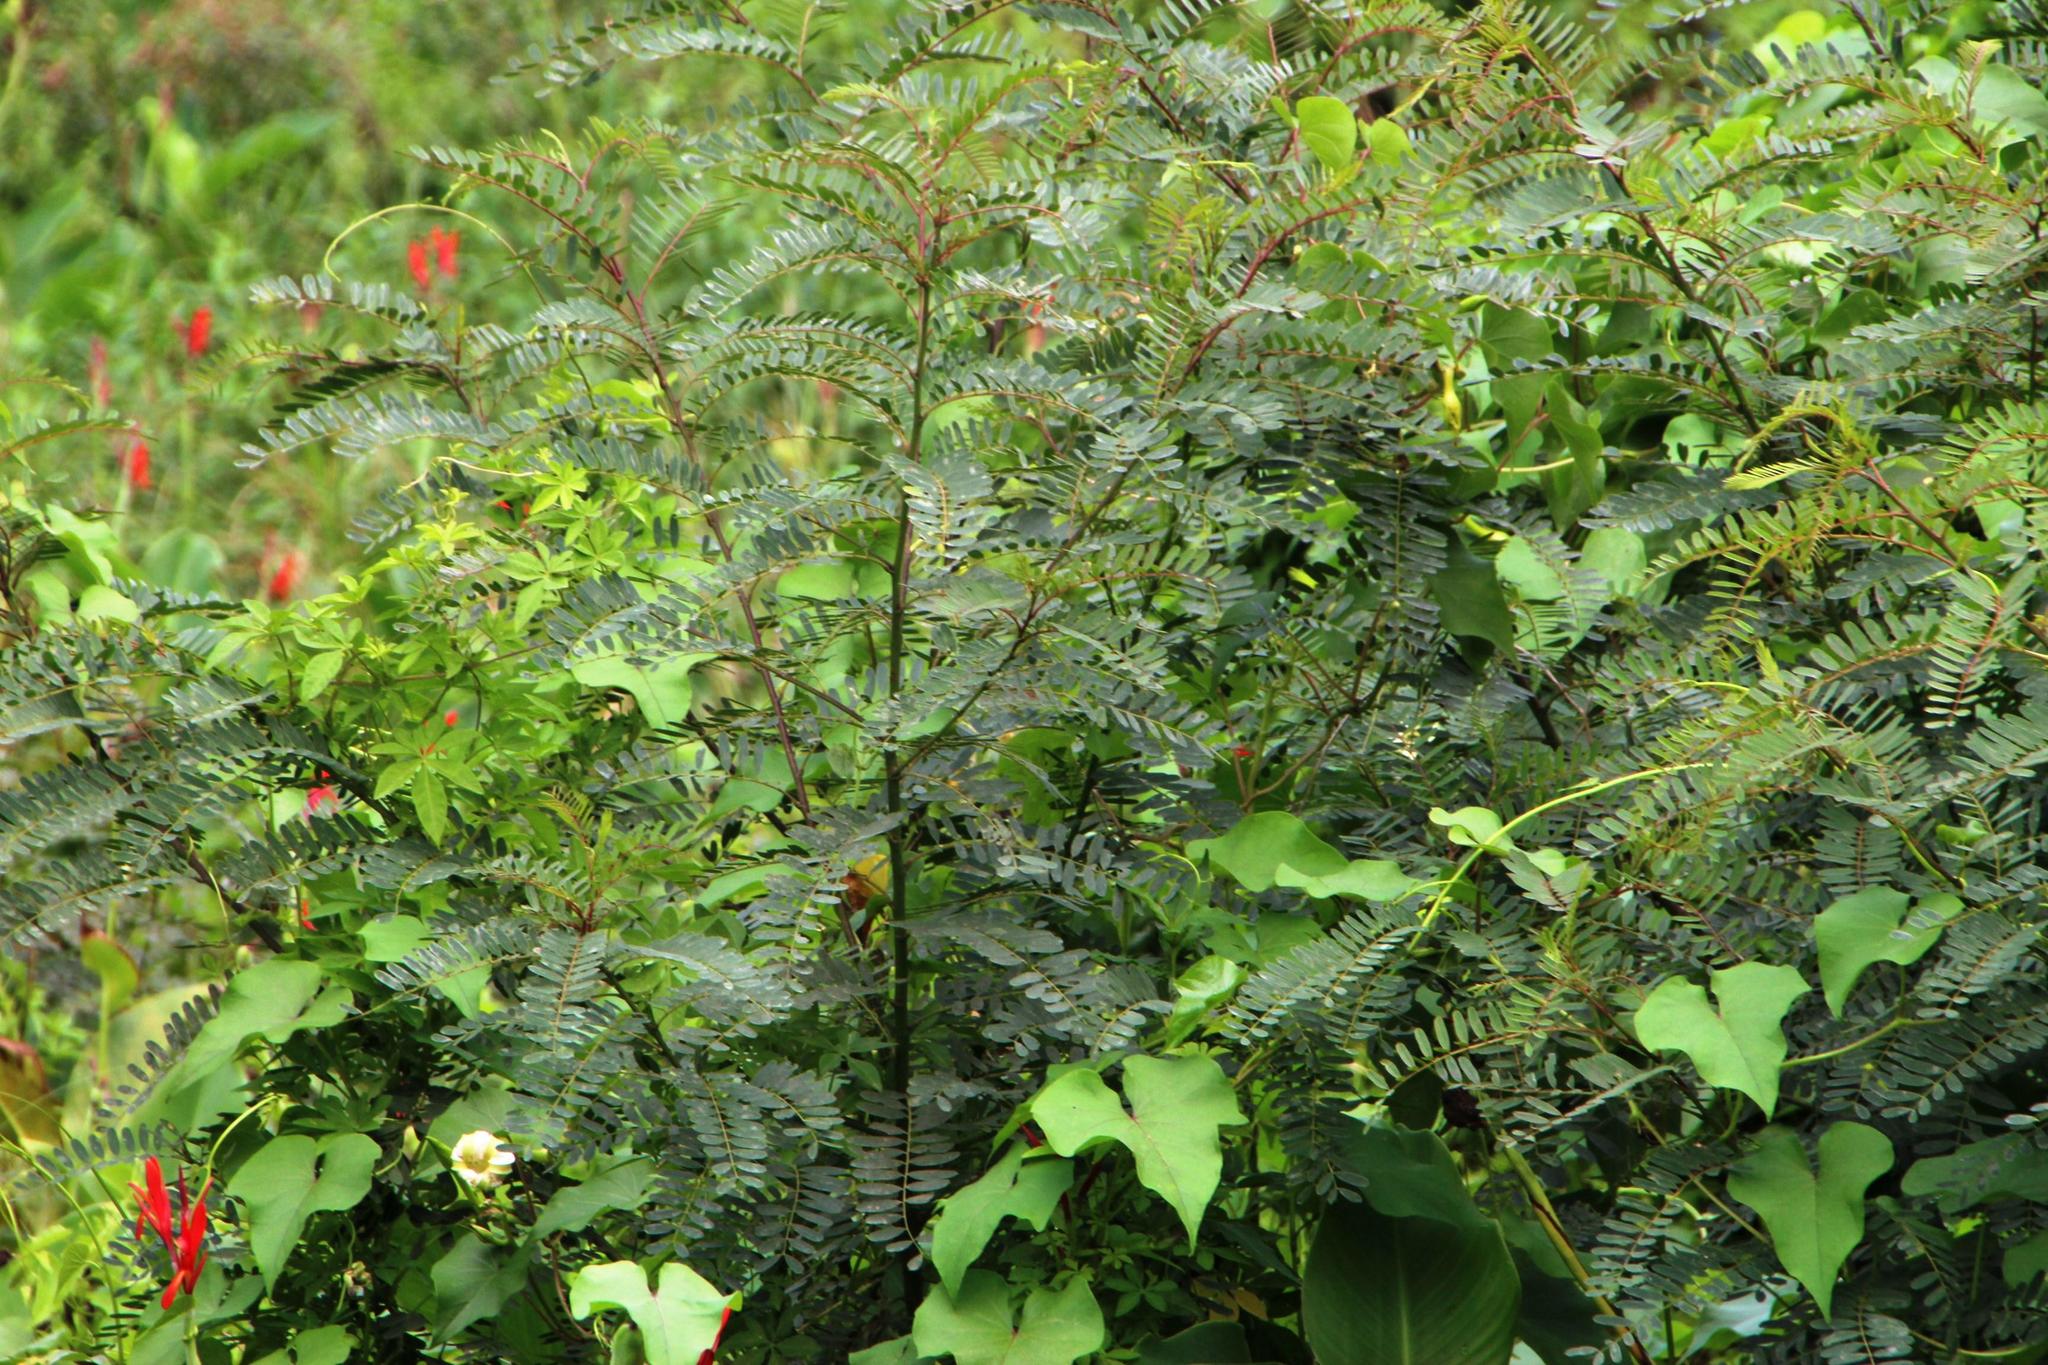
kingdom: Plantae
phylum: Tracheophyta
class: Magnoliopsida
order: Fabales
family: Fabaceae
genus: Sesbania
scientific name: Sesbania punicea
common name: Rattlebox
